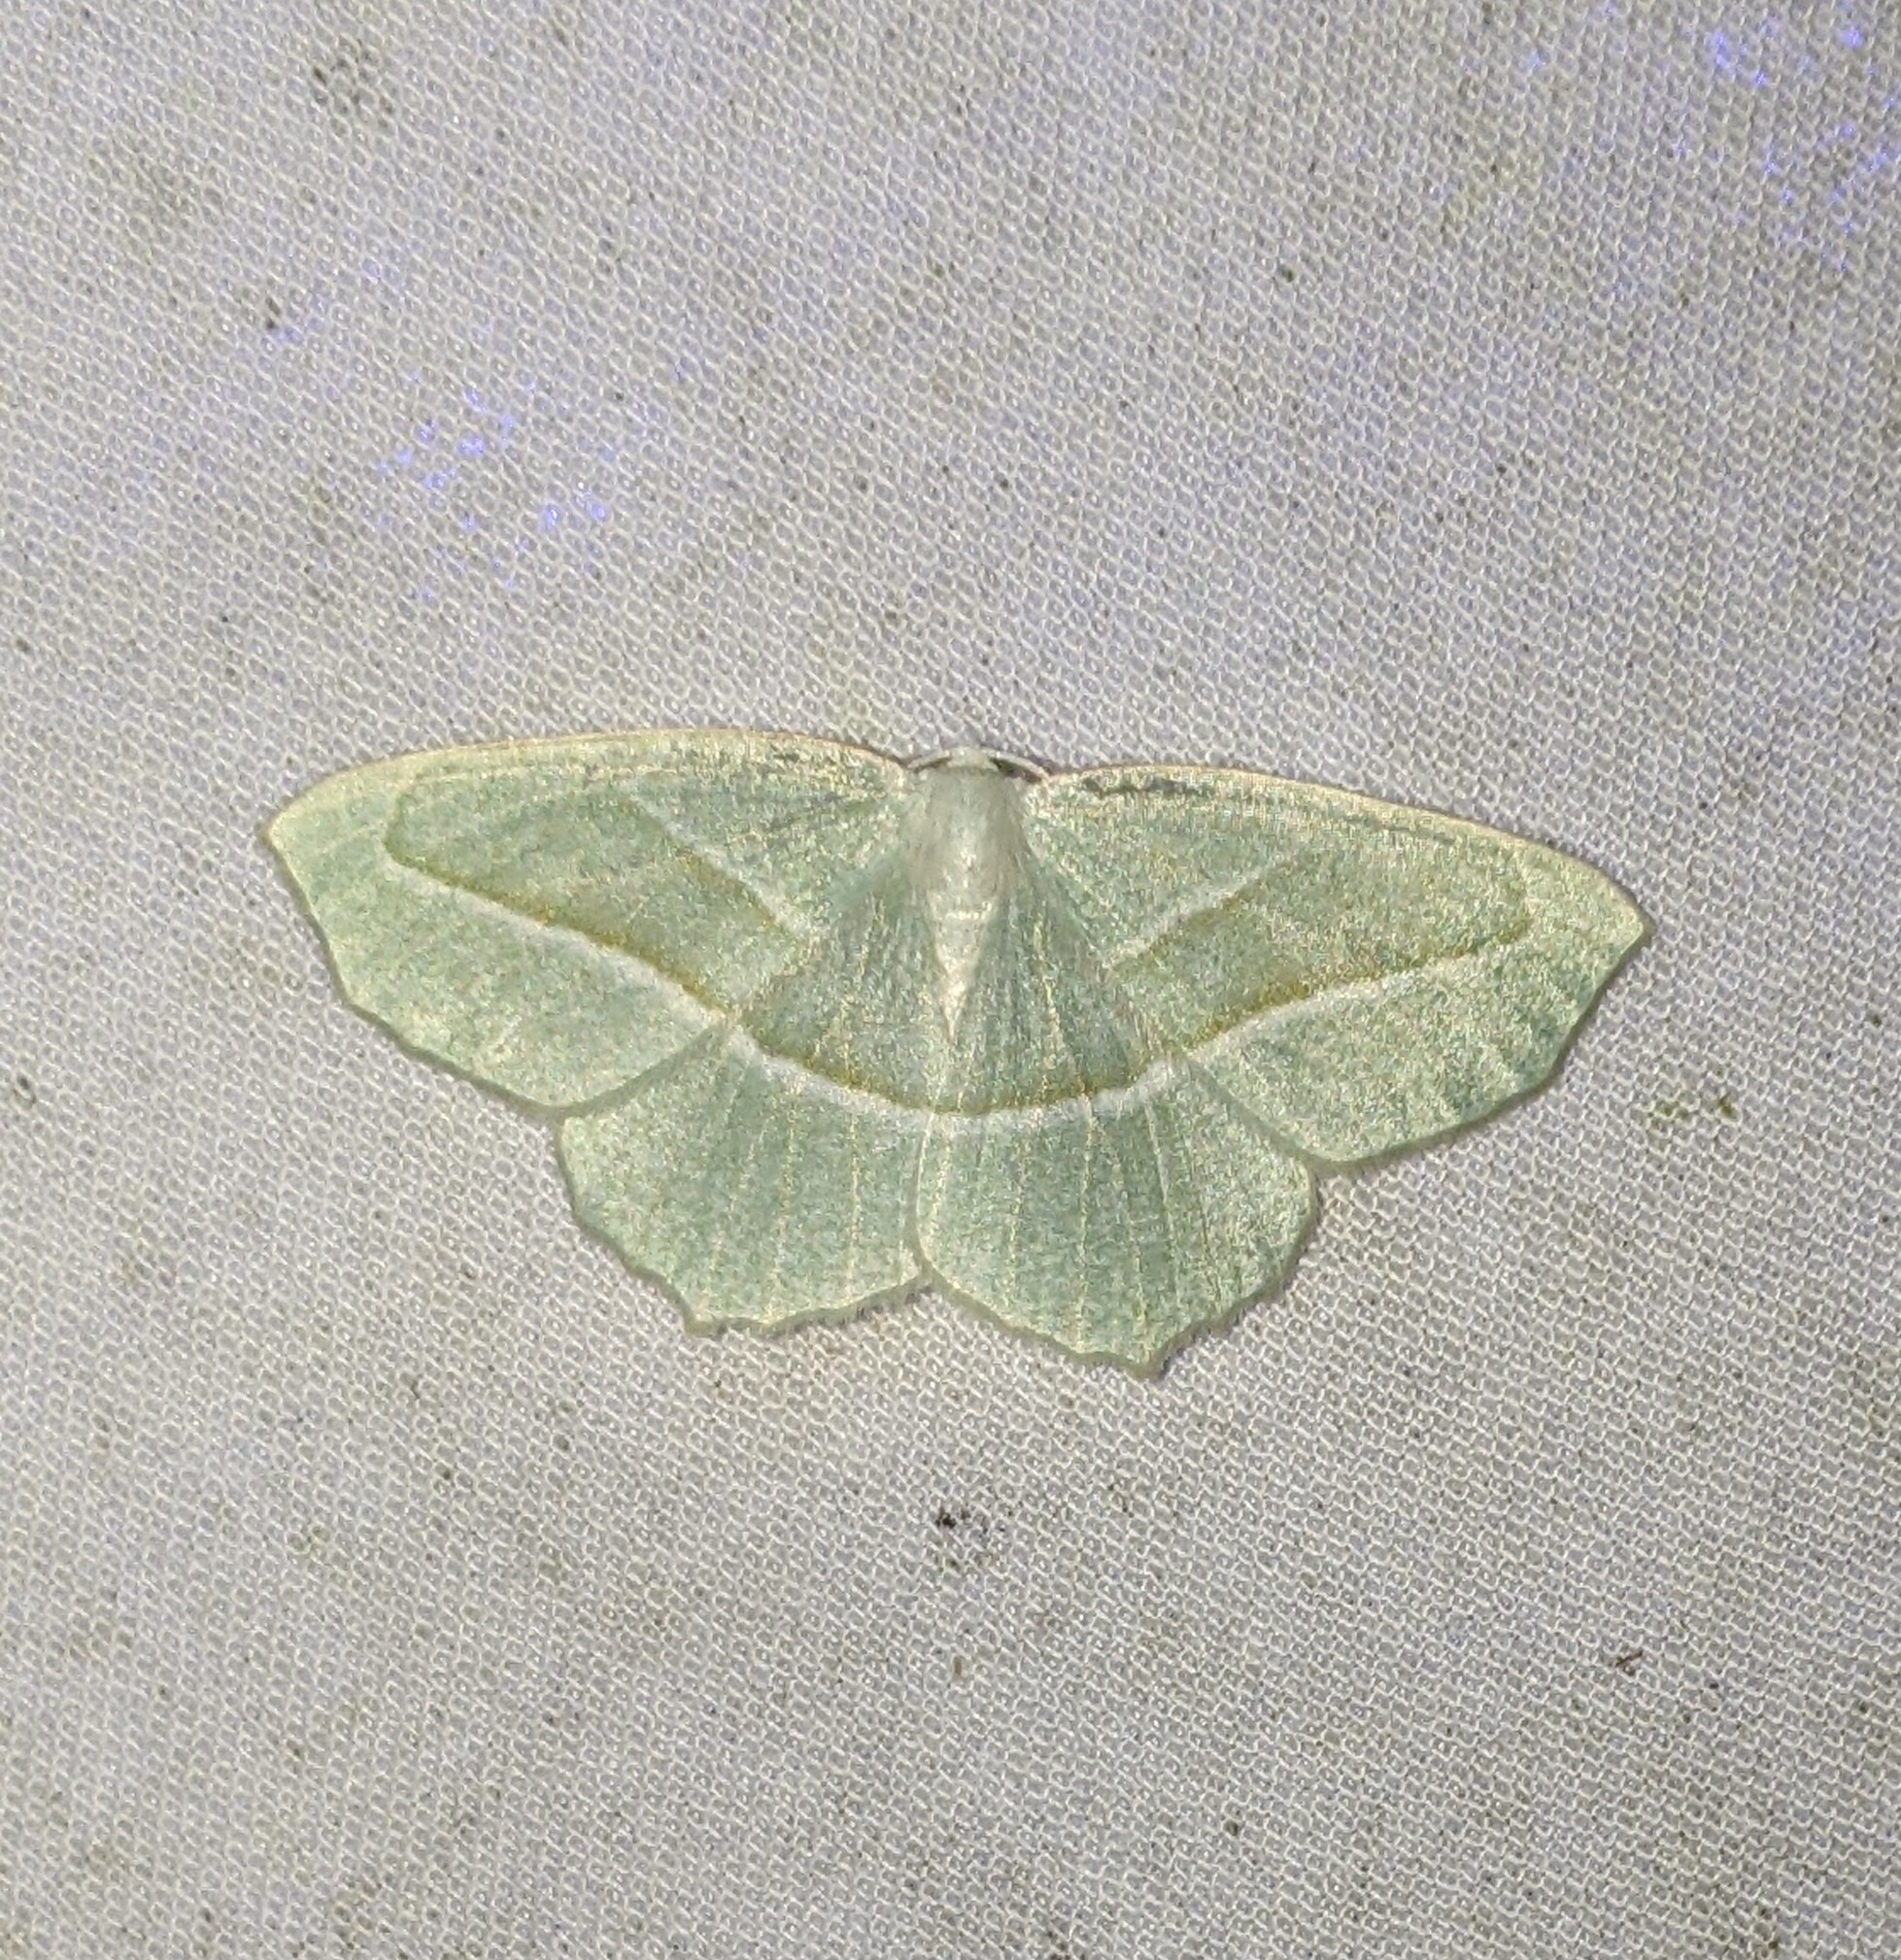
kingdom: Animalia
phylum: Arthropoda
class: Insecta
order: Lepidoptera
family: Geometridae
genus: Campaea
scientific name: Campaea perlata
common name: Fringed looper
